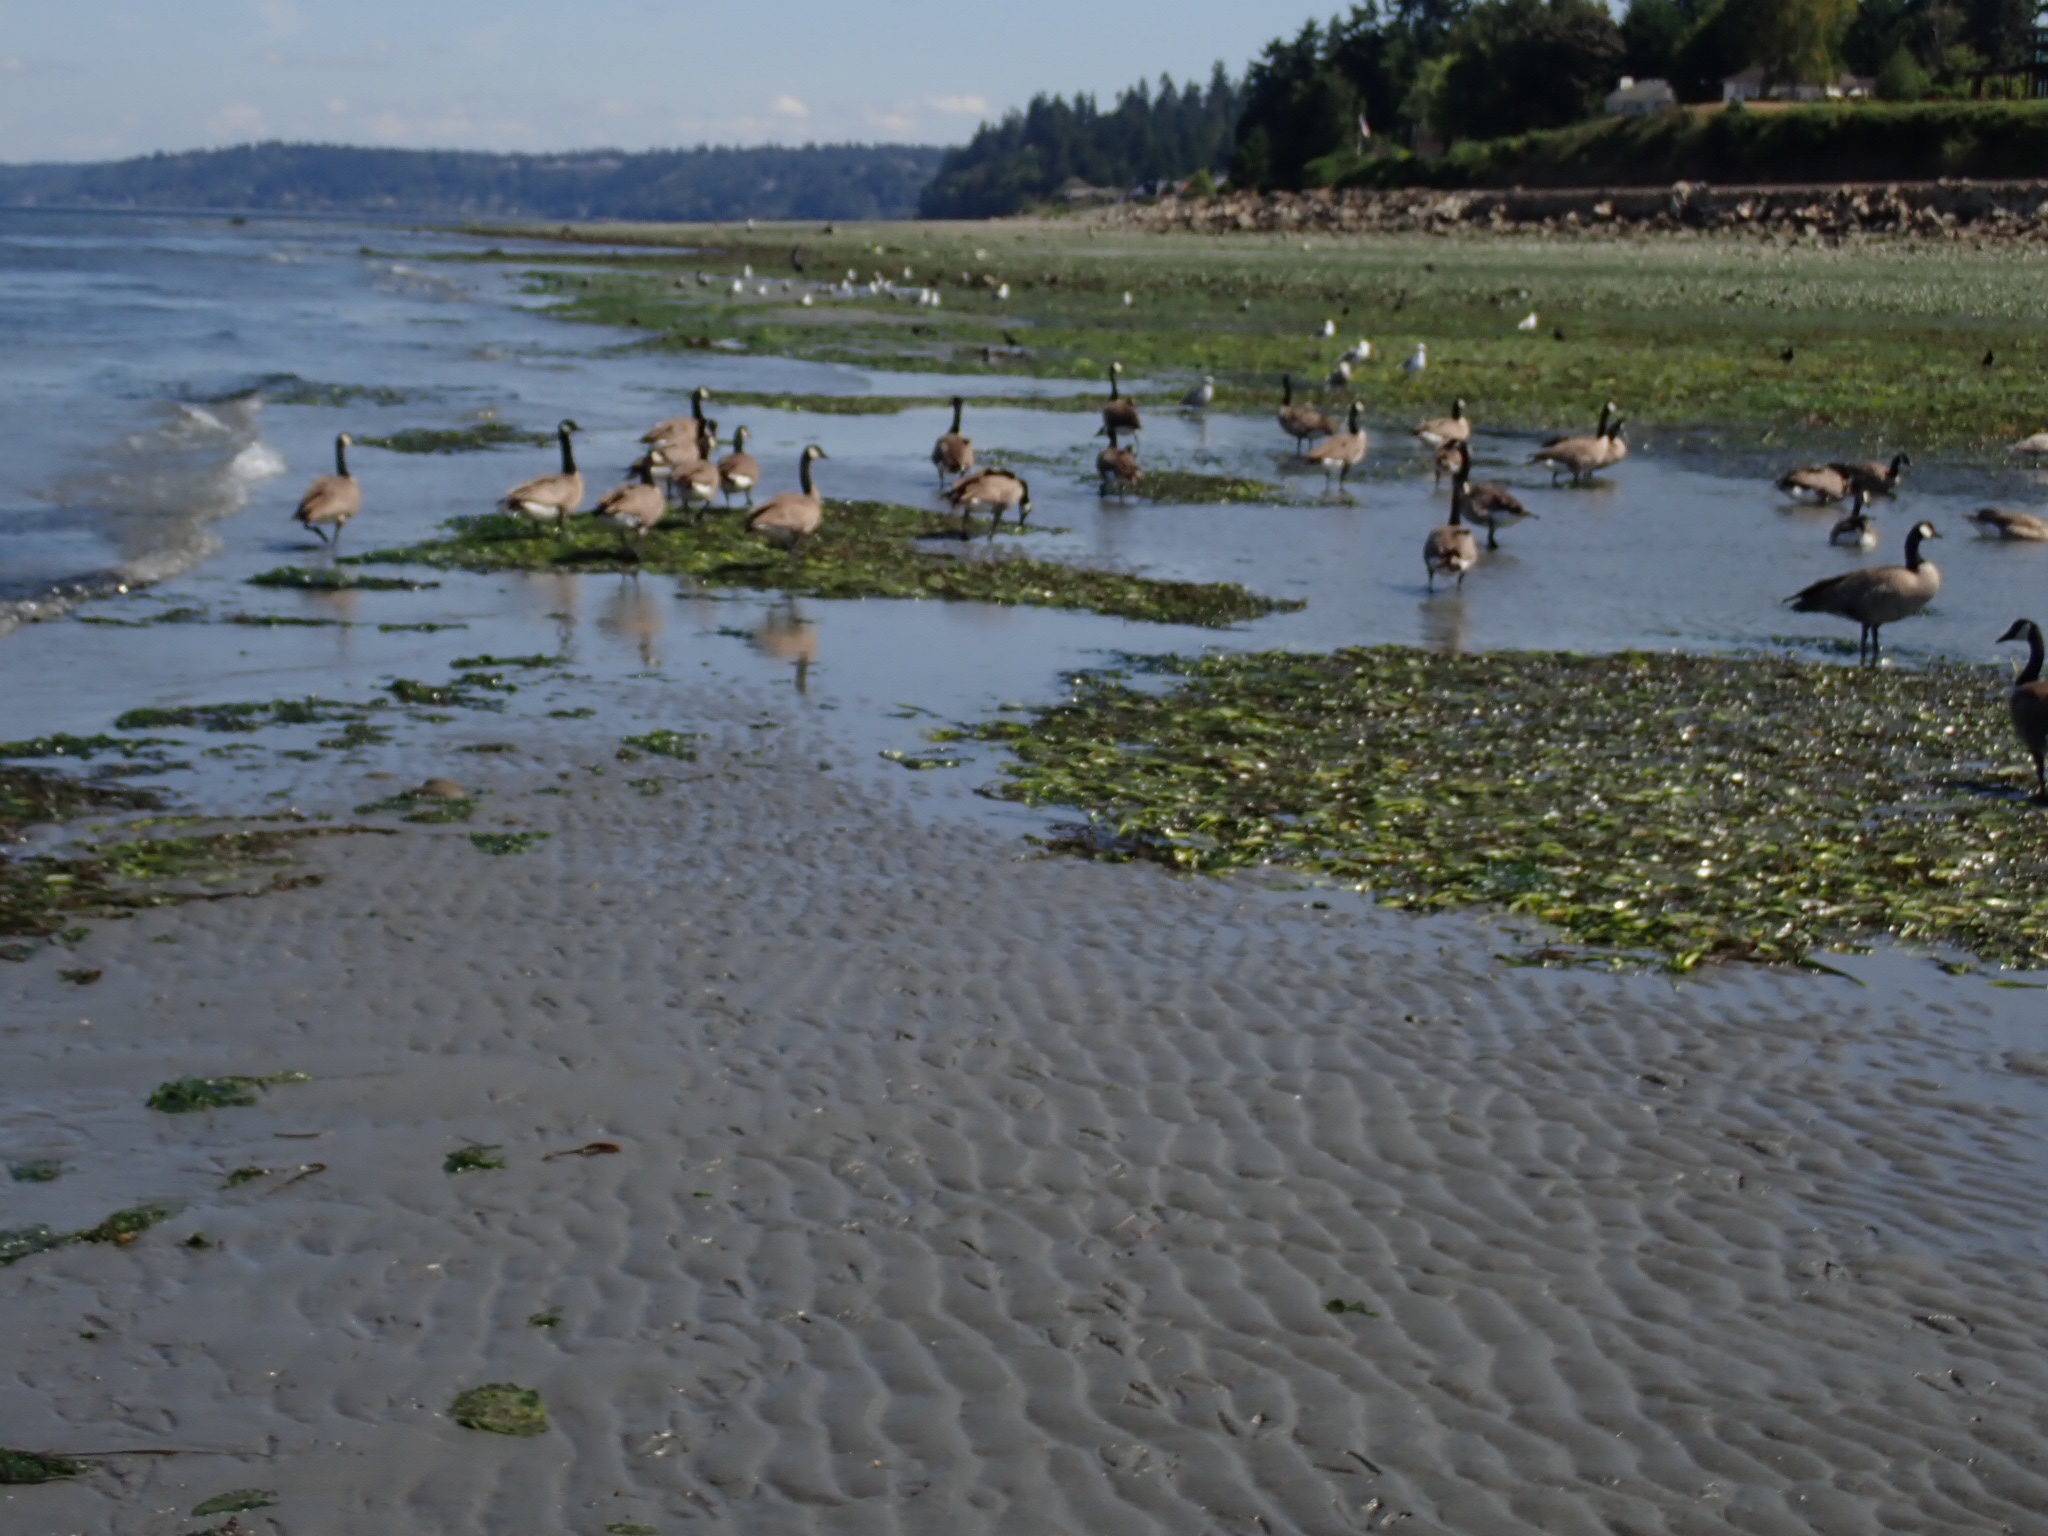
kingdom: Animalia
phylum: Chordata
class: Aves
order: Anseriformes
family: Anatidae
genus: Branta
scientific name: Branta canadensis
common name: Canada goose
